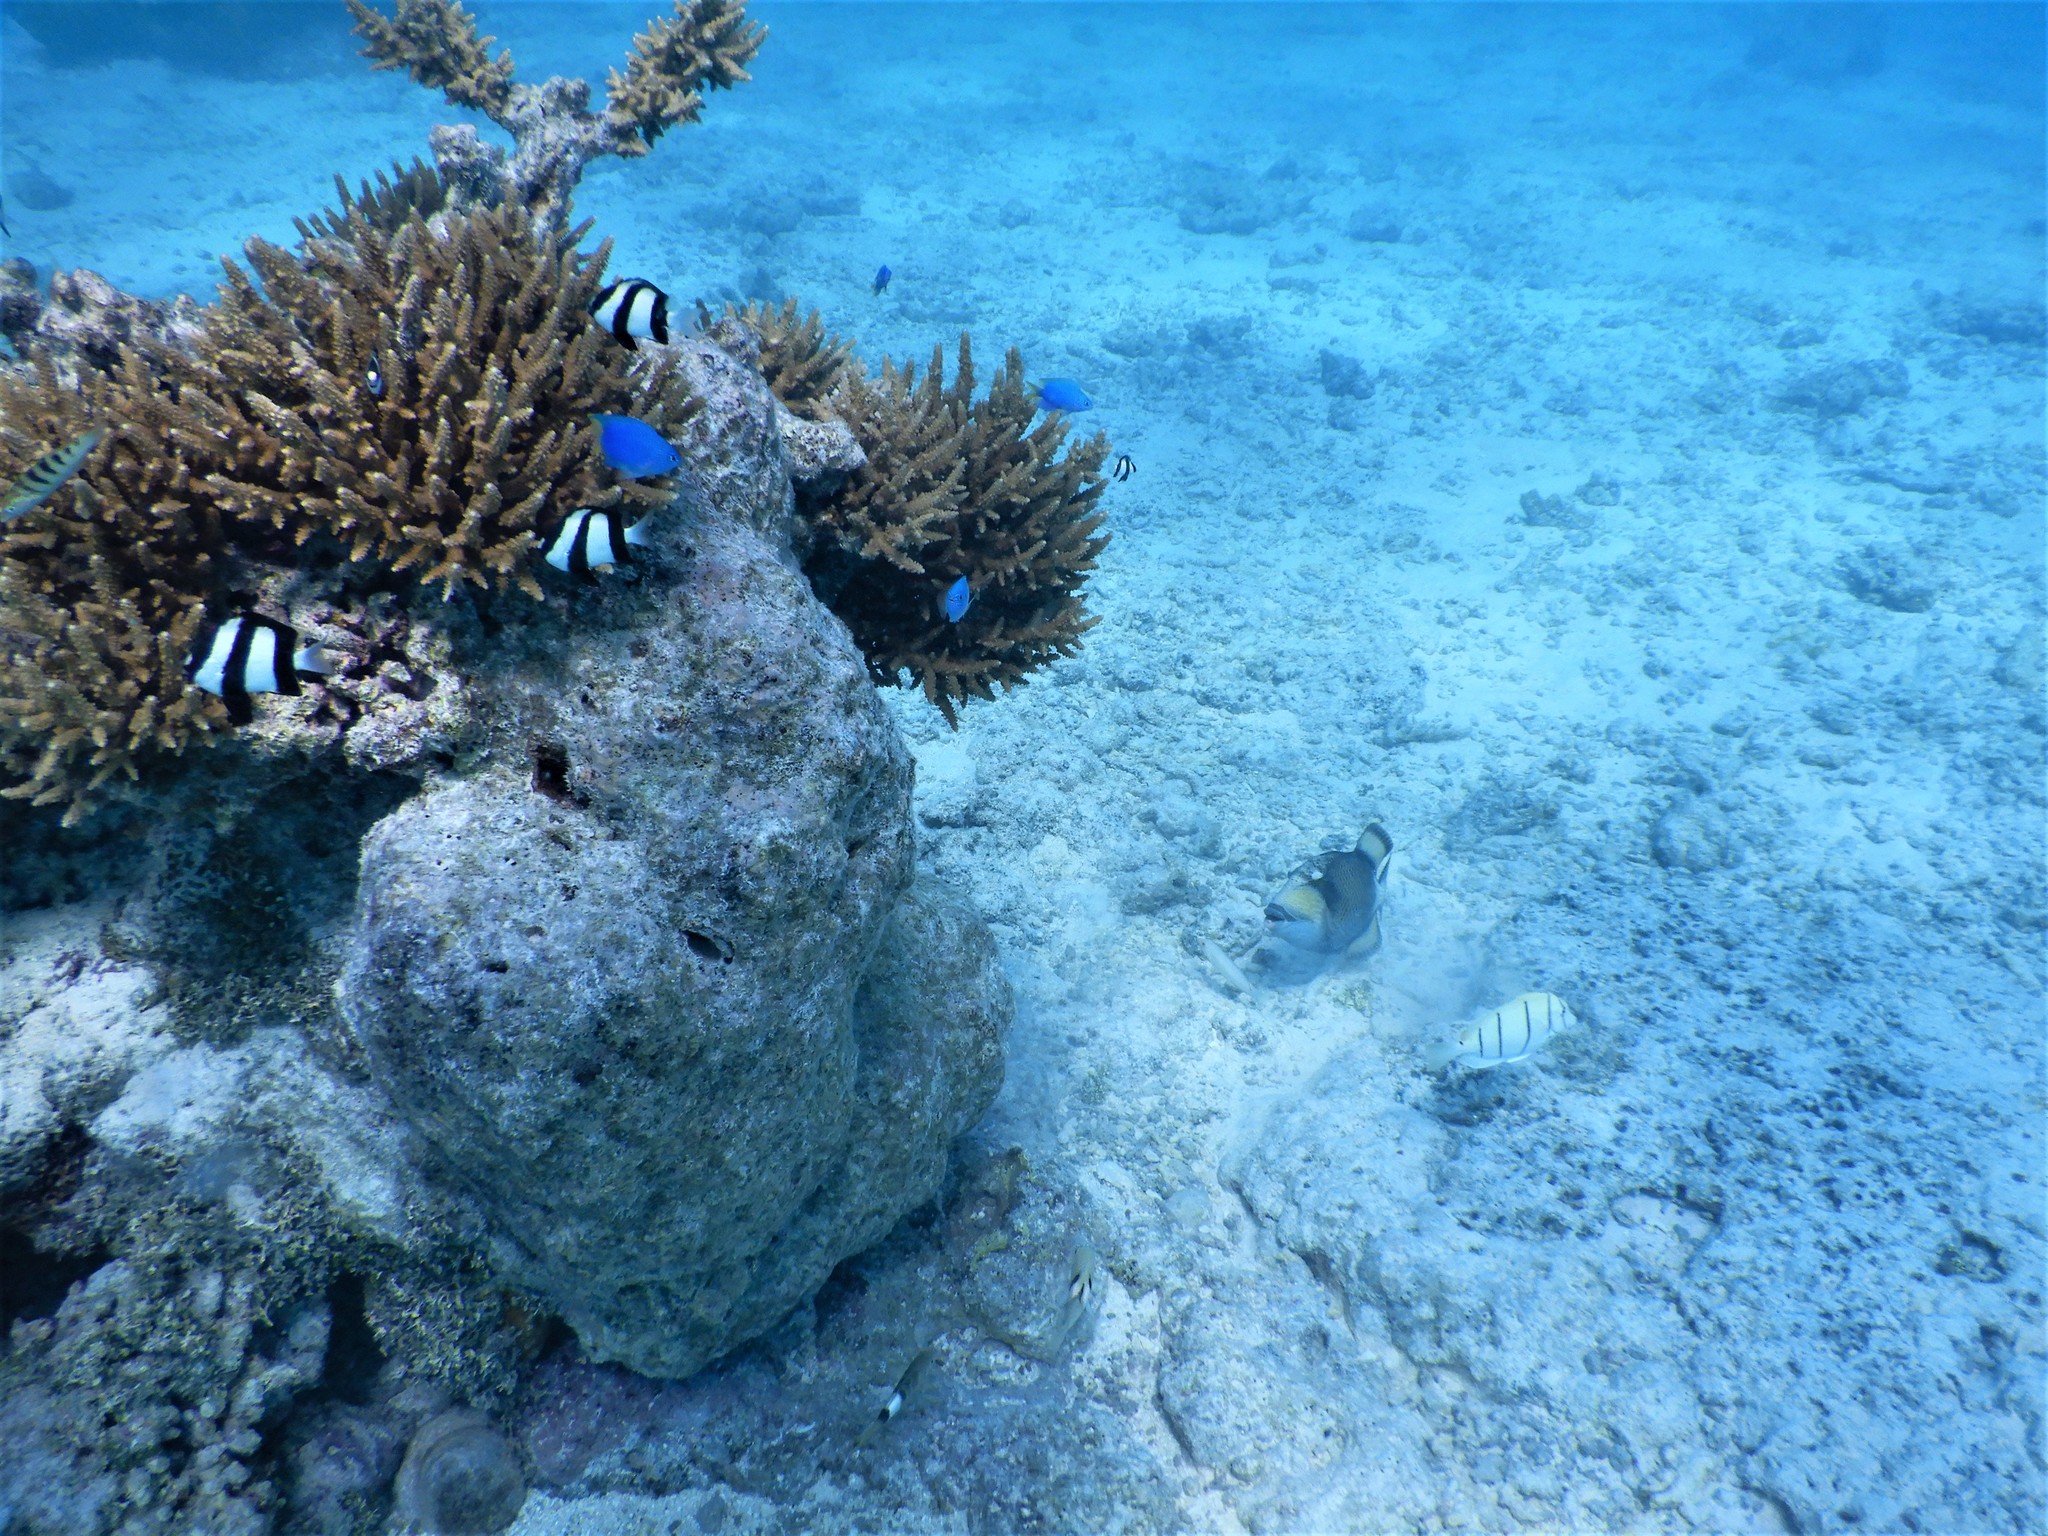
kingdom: Animalia
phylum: Chordata
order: Perciformes
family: Pomacentridae
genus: Dascyllus
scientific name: Dascyllus aruanus
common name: Humbug dascyllus
